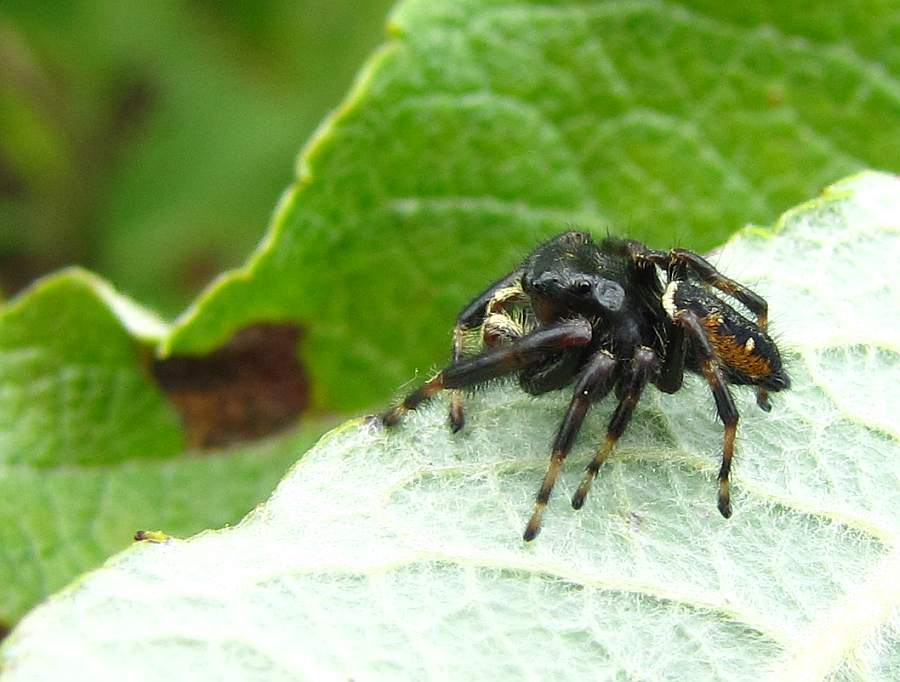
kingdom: Animalia
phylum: Arthropoda
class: Arachnida
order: Araneae
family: Salticidae
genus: Phidippus
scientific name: Phidippus clarus
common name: Brilliant jumping spider
